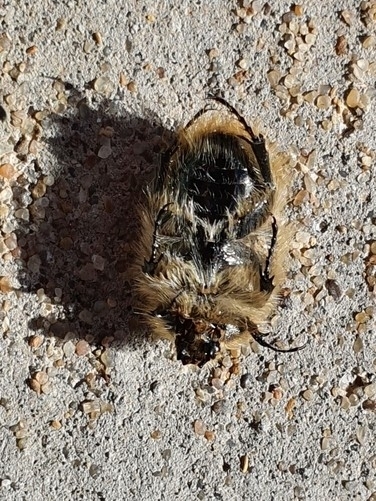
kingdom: Animalia
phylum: Arthropoda
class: Insecta
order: Coleoptera
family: Scarabaeidae
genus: Tropinota
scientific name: Tropinota squalida
